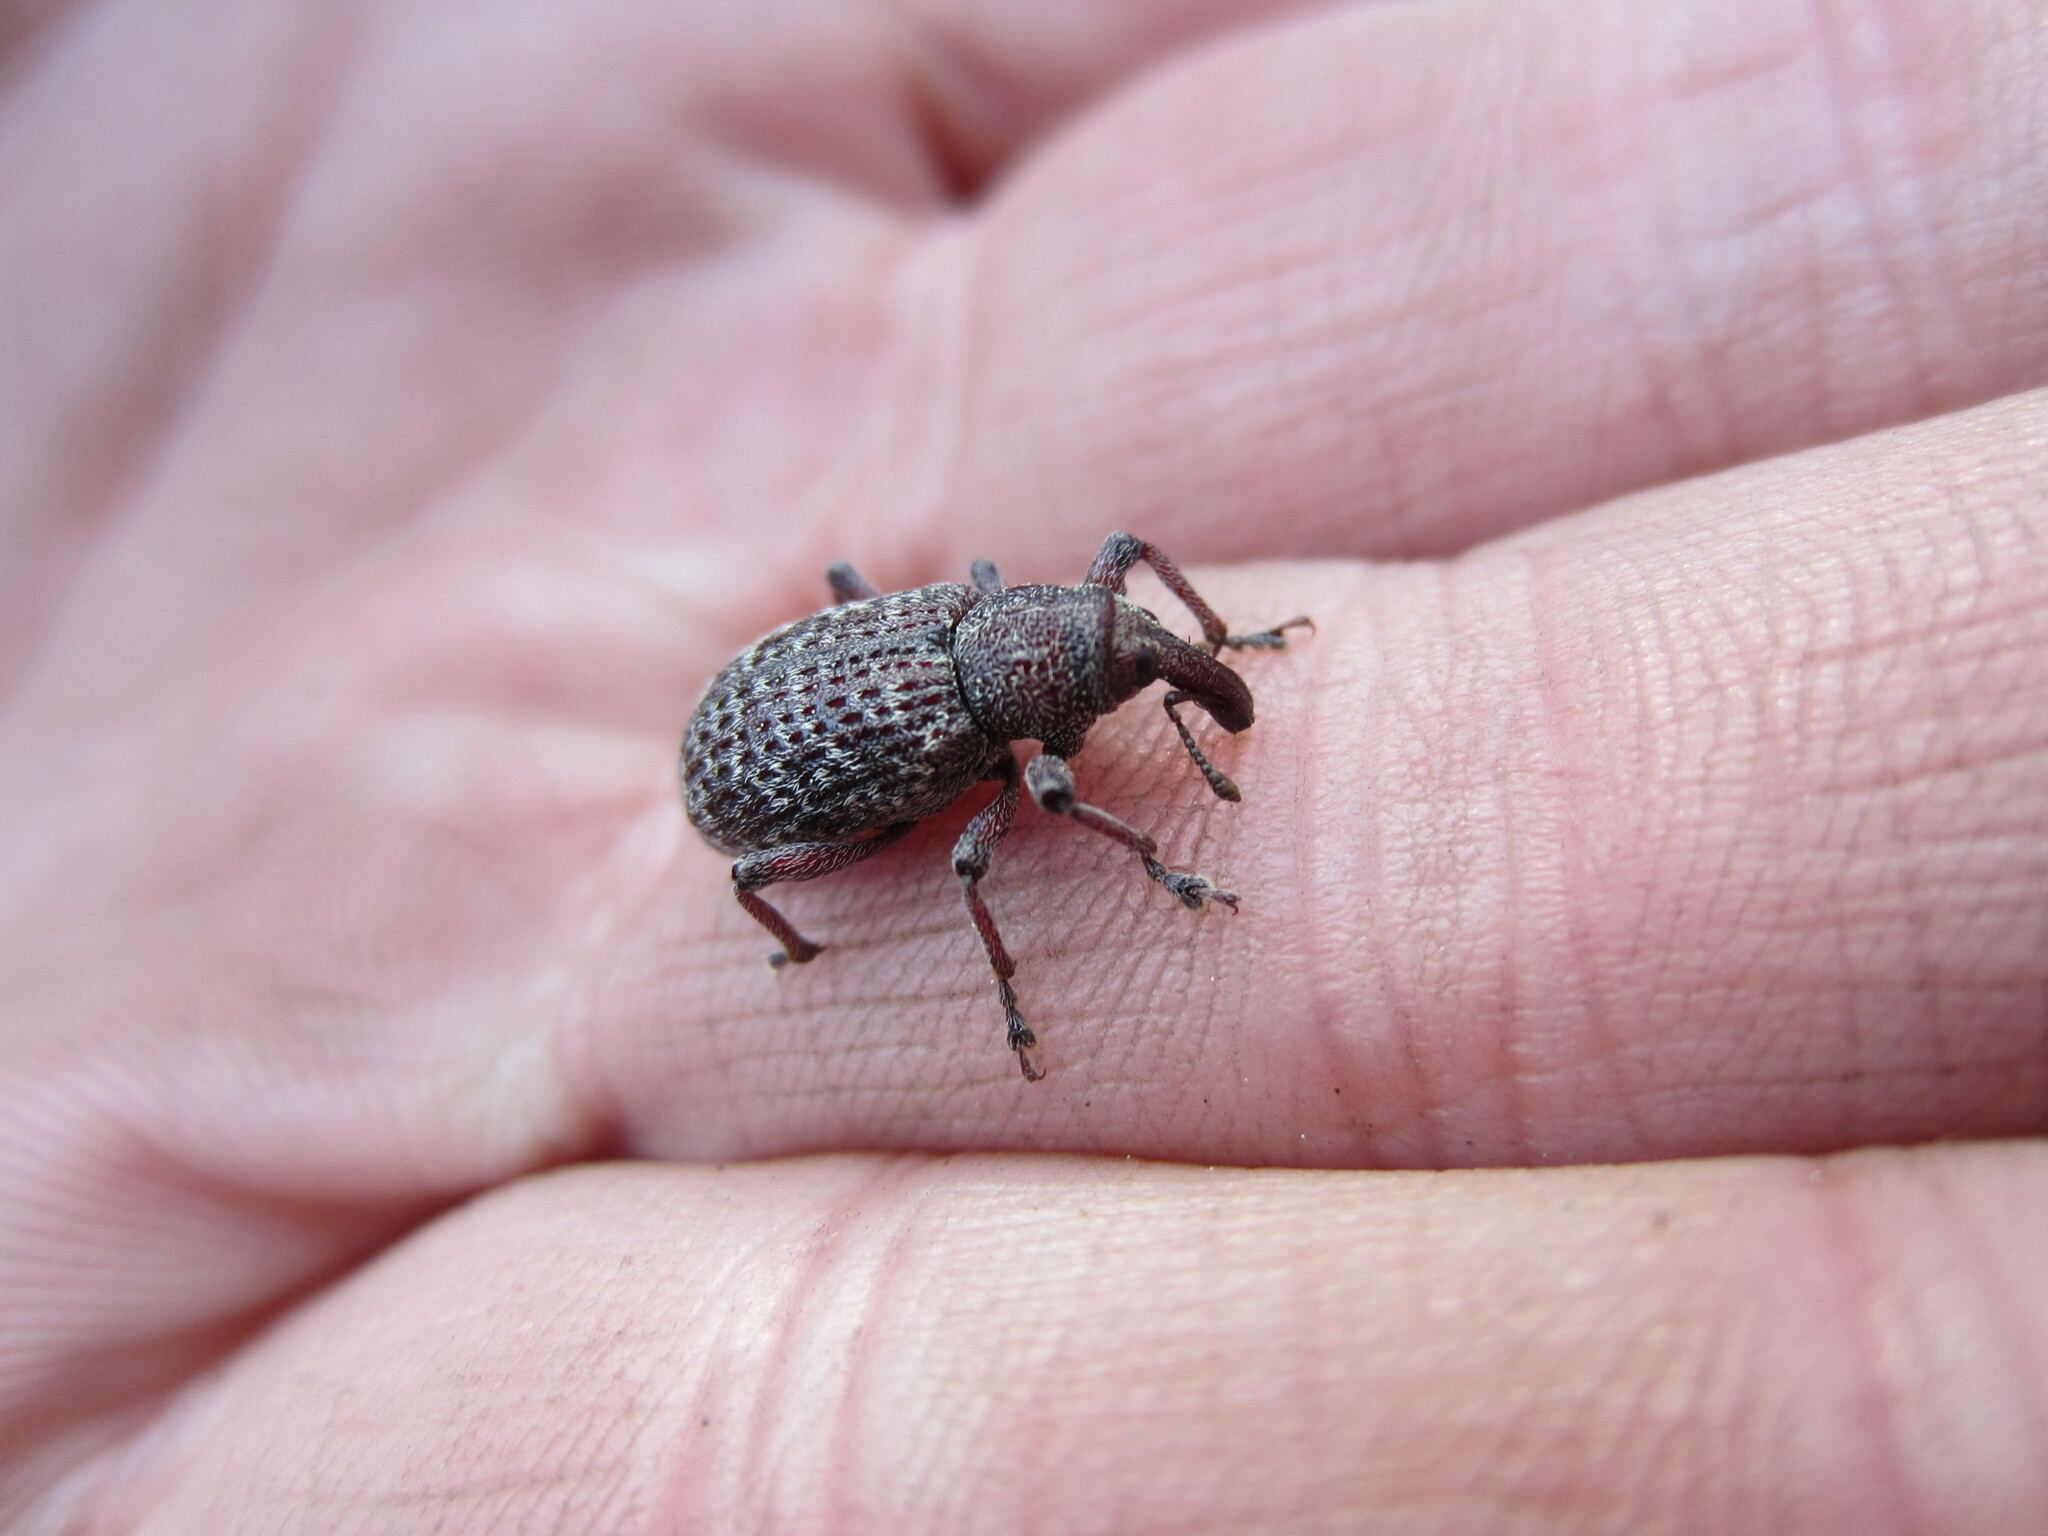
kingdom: Animalia
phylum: Arthropoda
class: Insecta
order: Coleoptera
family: Curculionidae
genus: Hylobius
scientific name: Hylobius pinicola
